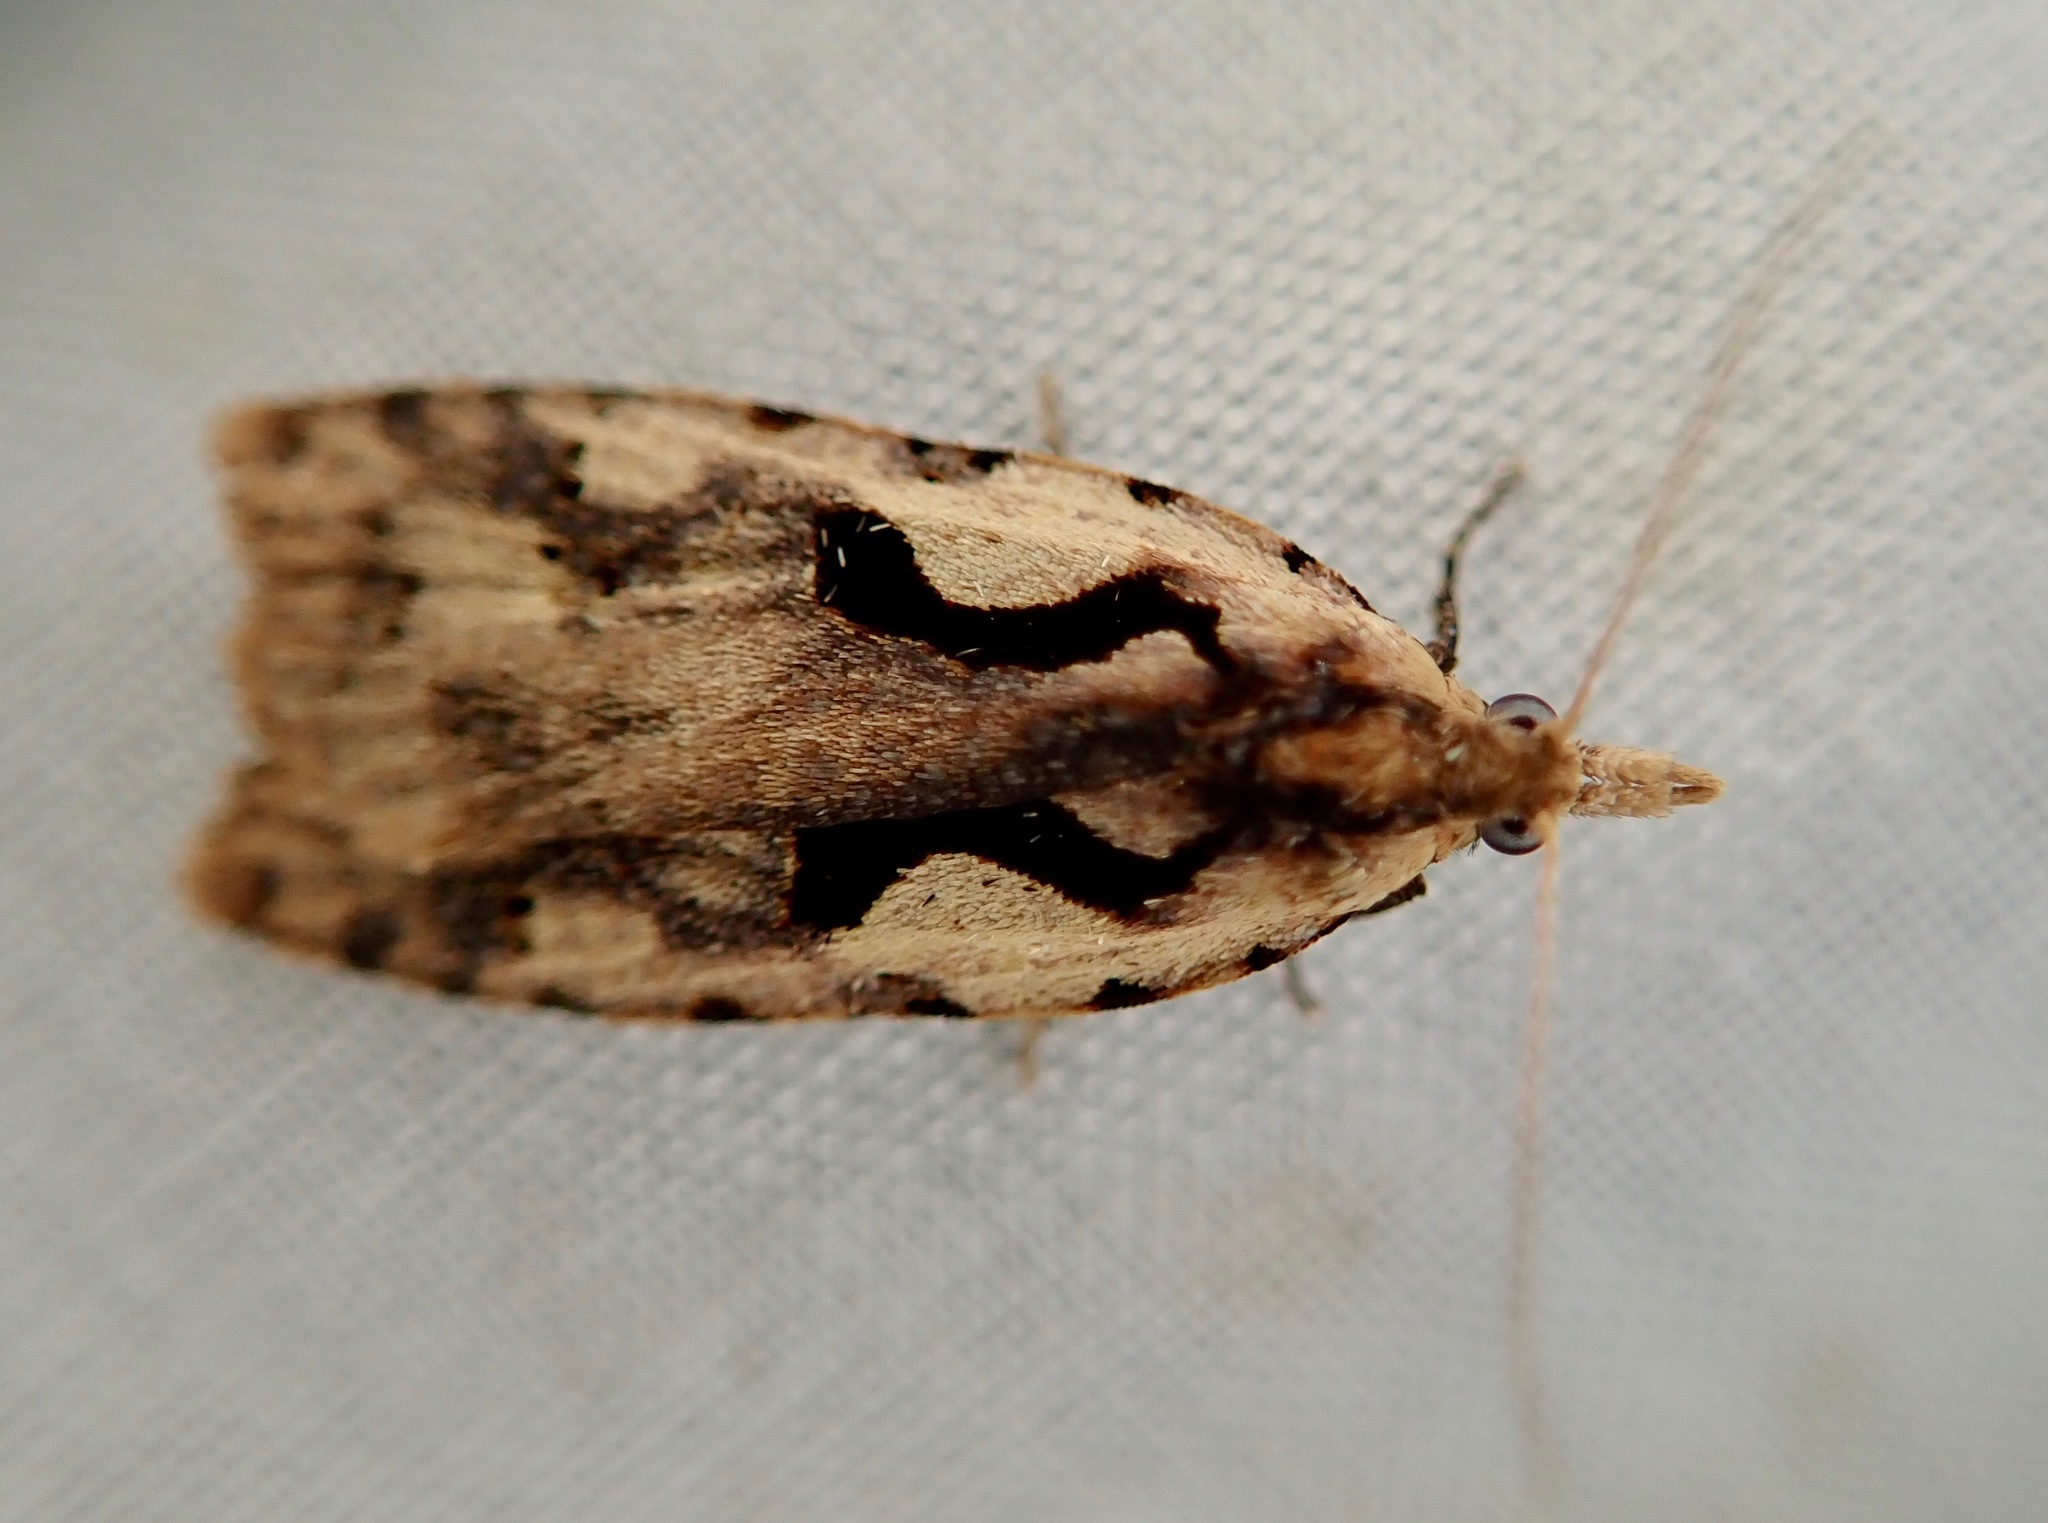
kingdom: Animalia
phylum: Arthropoda
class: Insecta
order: Lepidoptera
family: Tortricidae
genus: Cnephasia
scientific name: Cnephasia jactatana
